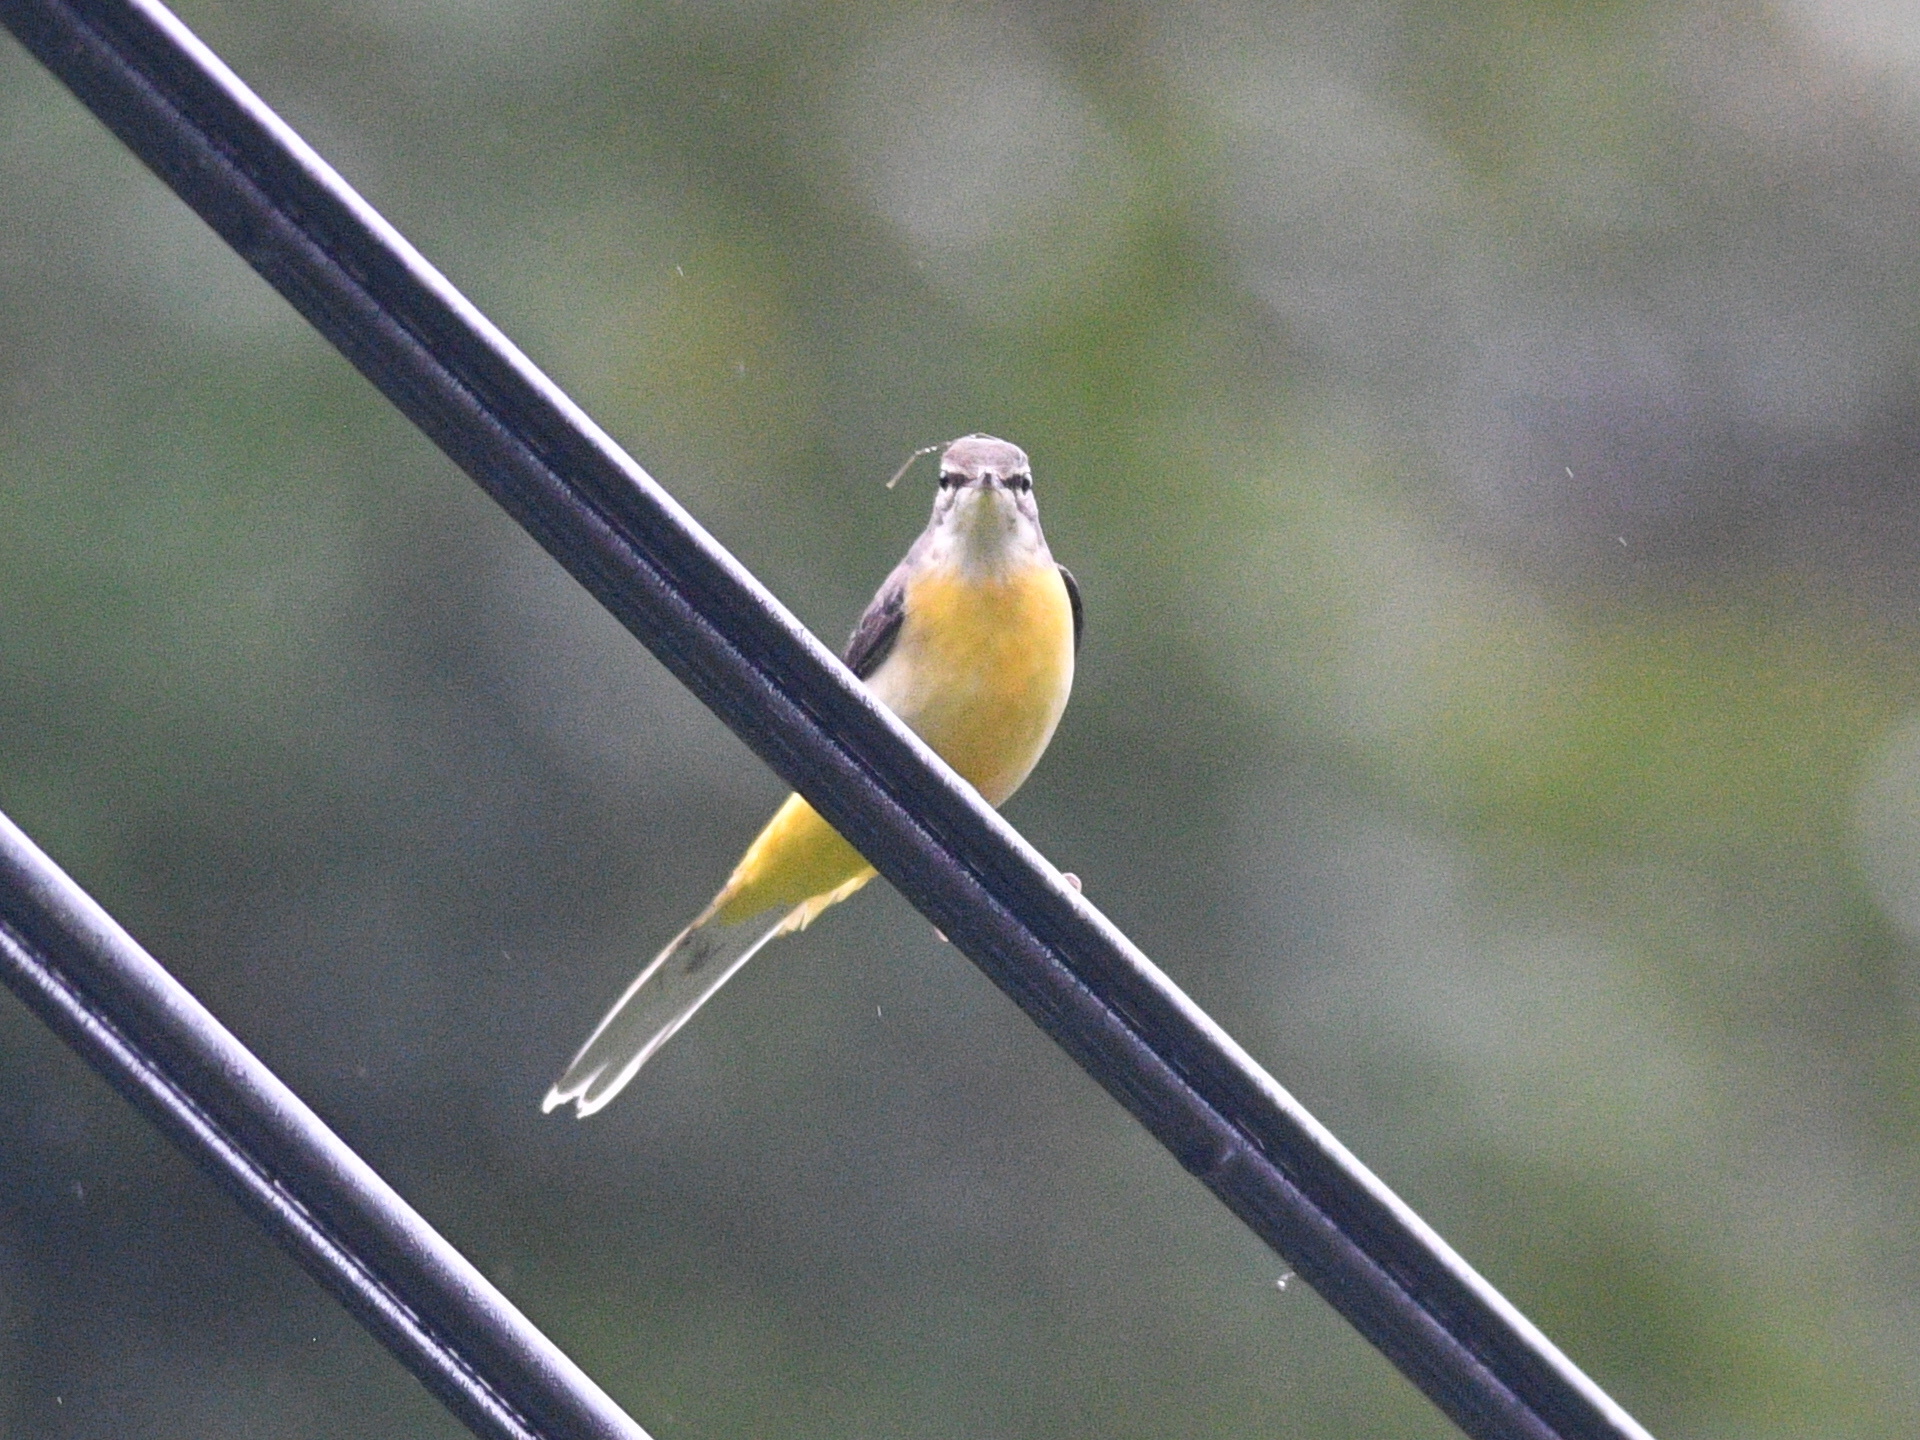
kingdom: Animalia
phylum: Chordata
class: Aves
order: Passeriformes
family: Motacillidae
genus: Motacilla
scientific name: Motacilla cinerea
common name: Grey wagtail
